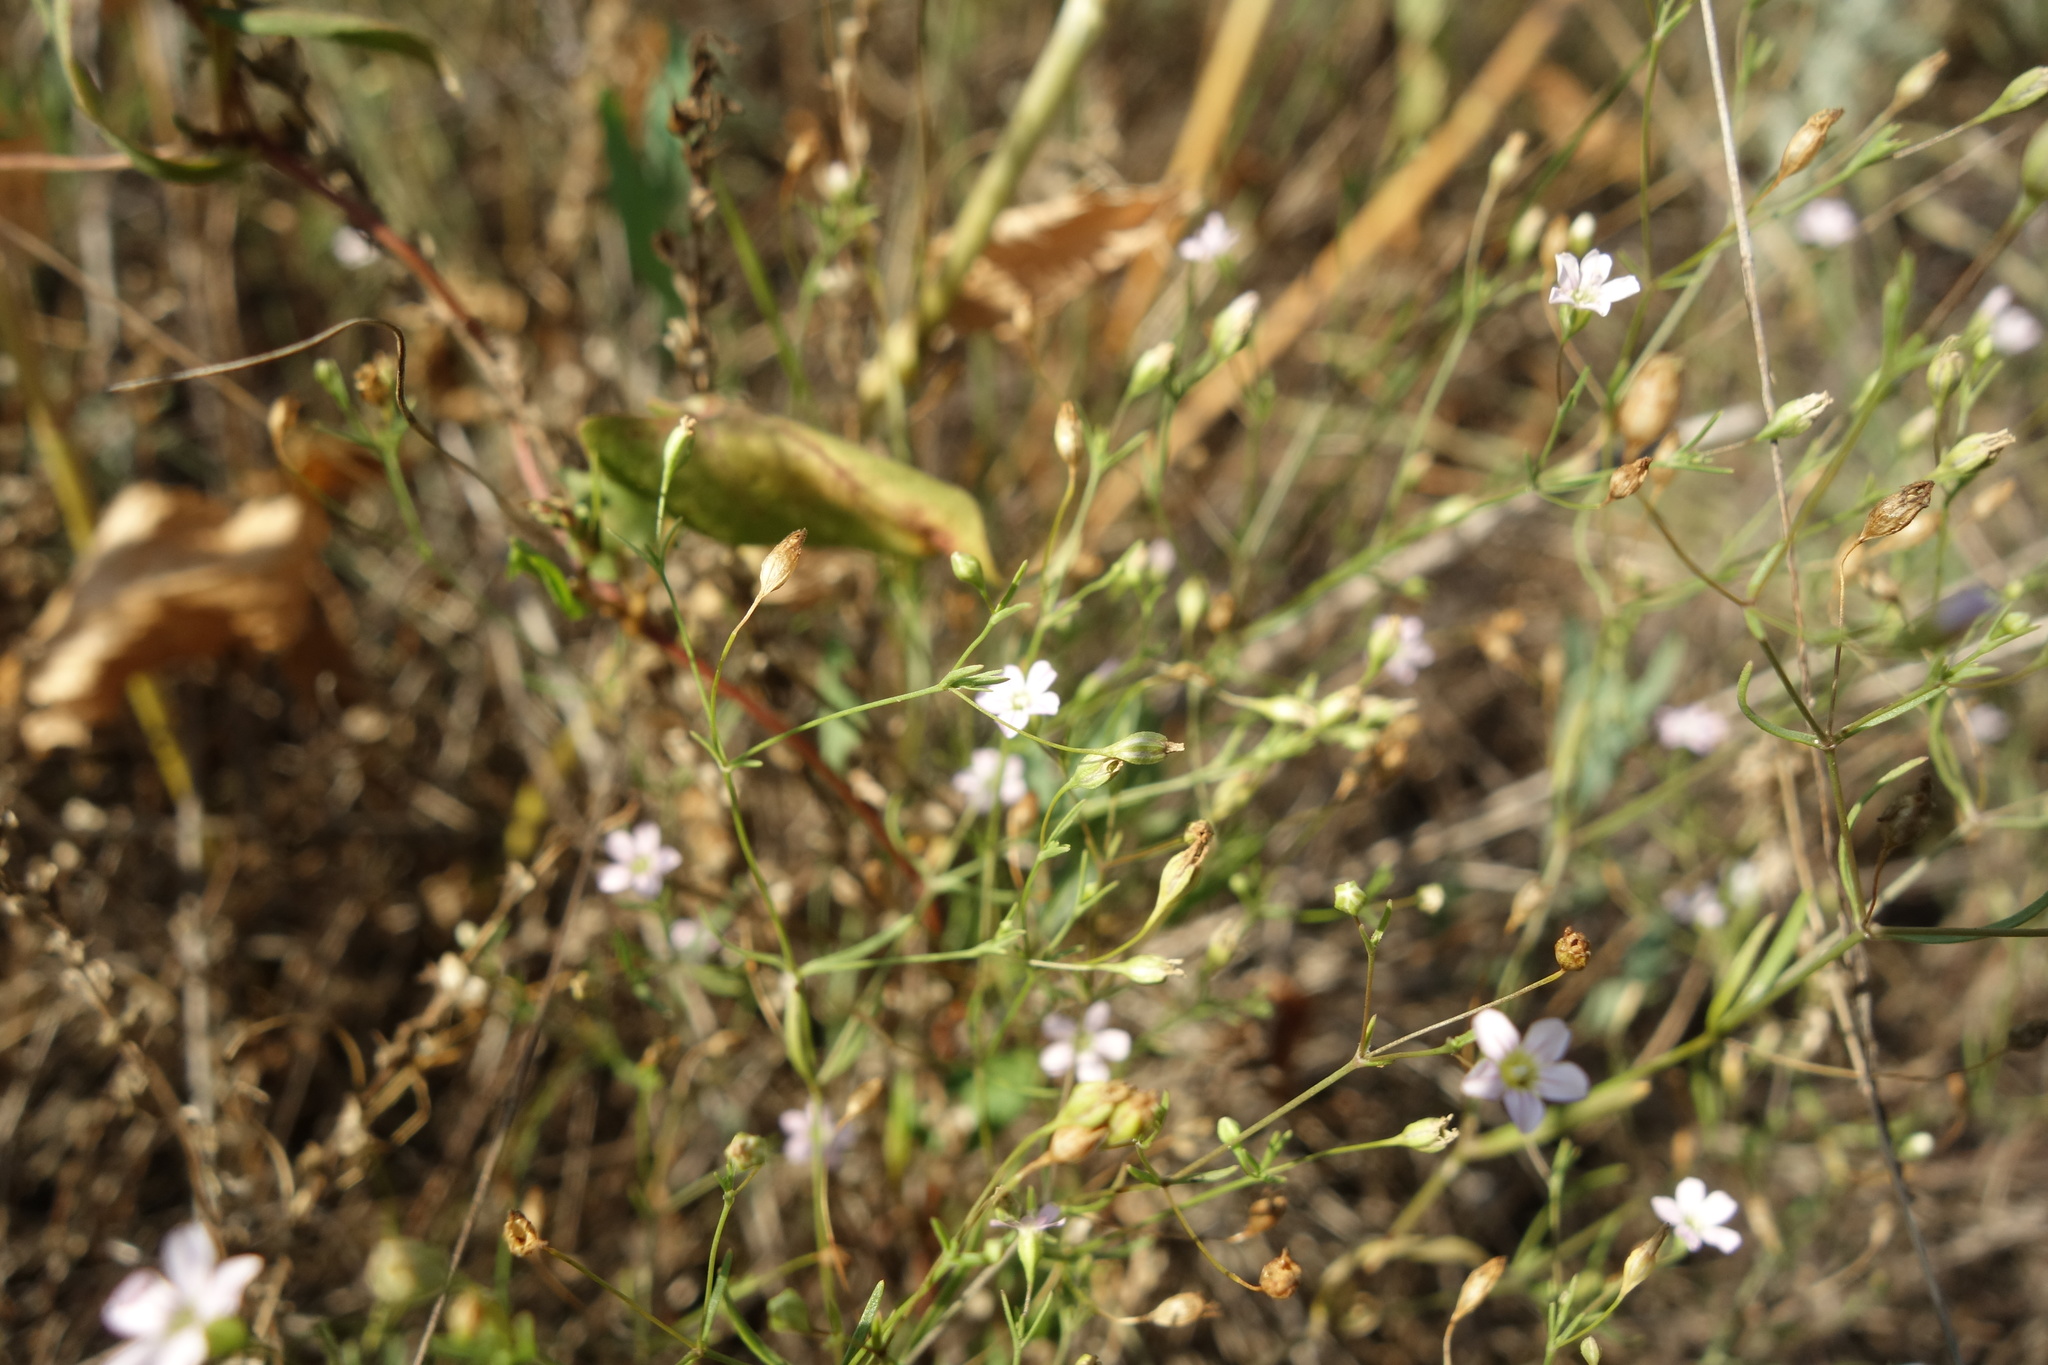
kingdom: Plantae
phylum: Tracheophyta
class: Magnoliopsida
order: Caryophyllales
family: Caryophyllaceae
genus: Psammophiliella
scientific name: Psammophiliella muralis
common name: Cushion baby's-breath
